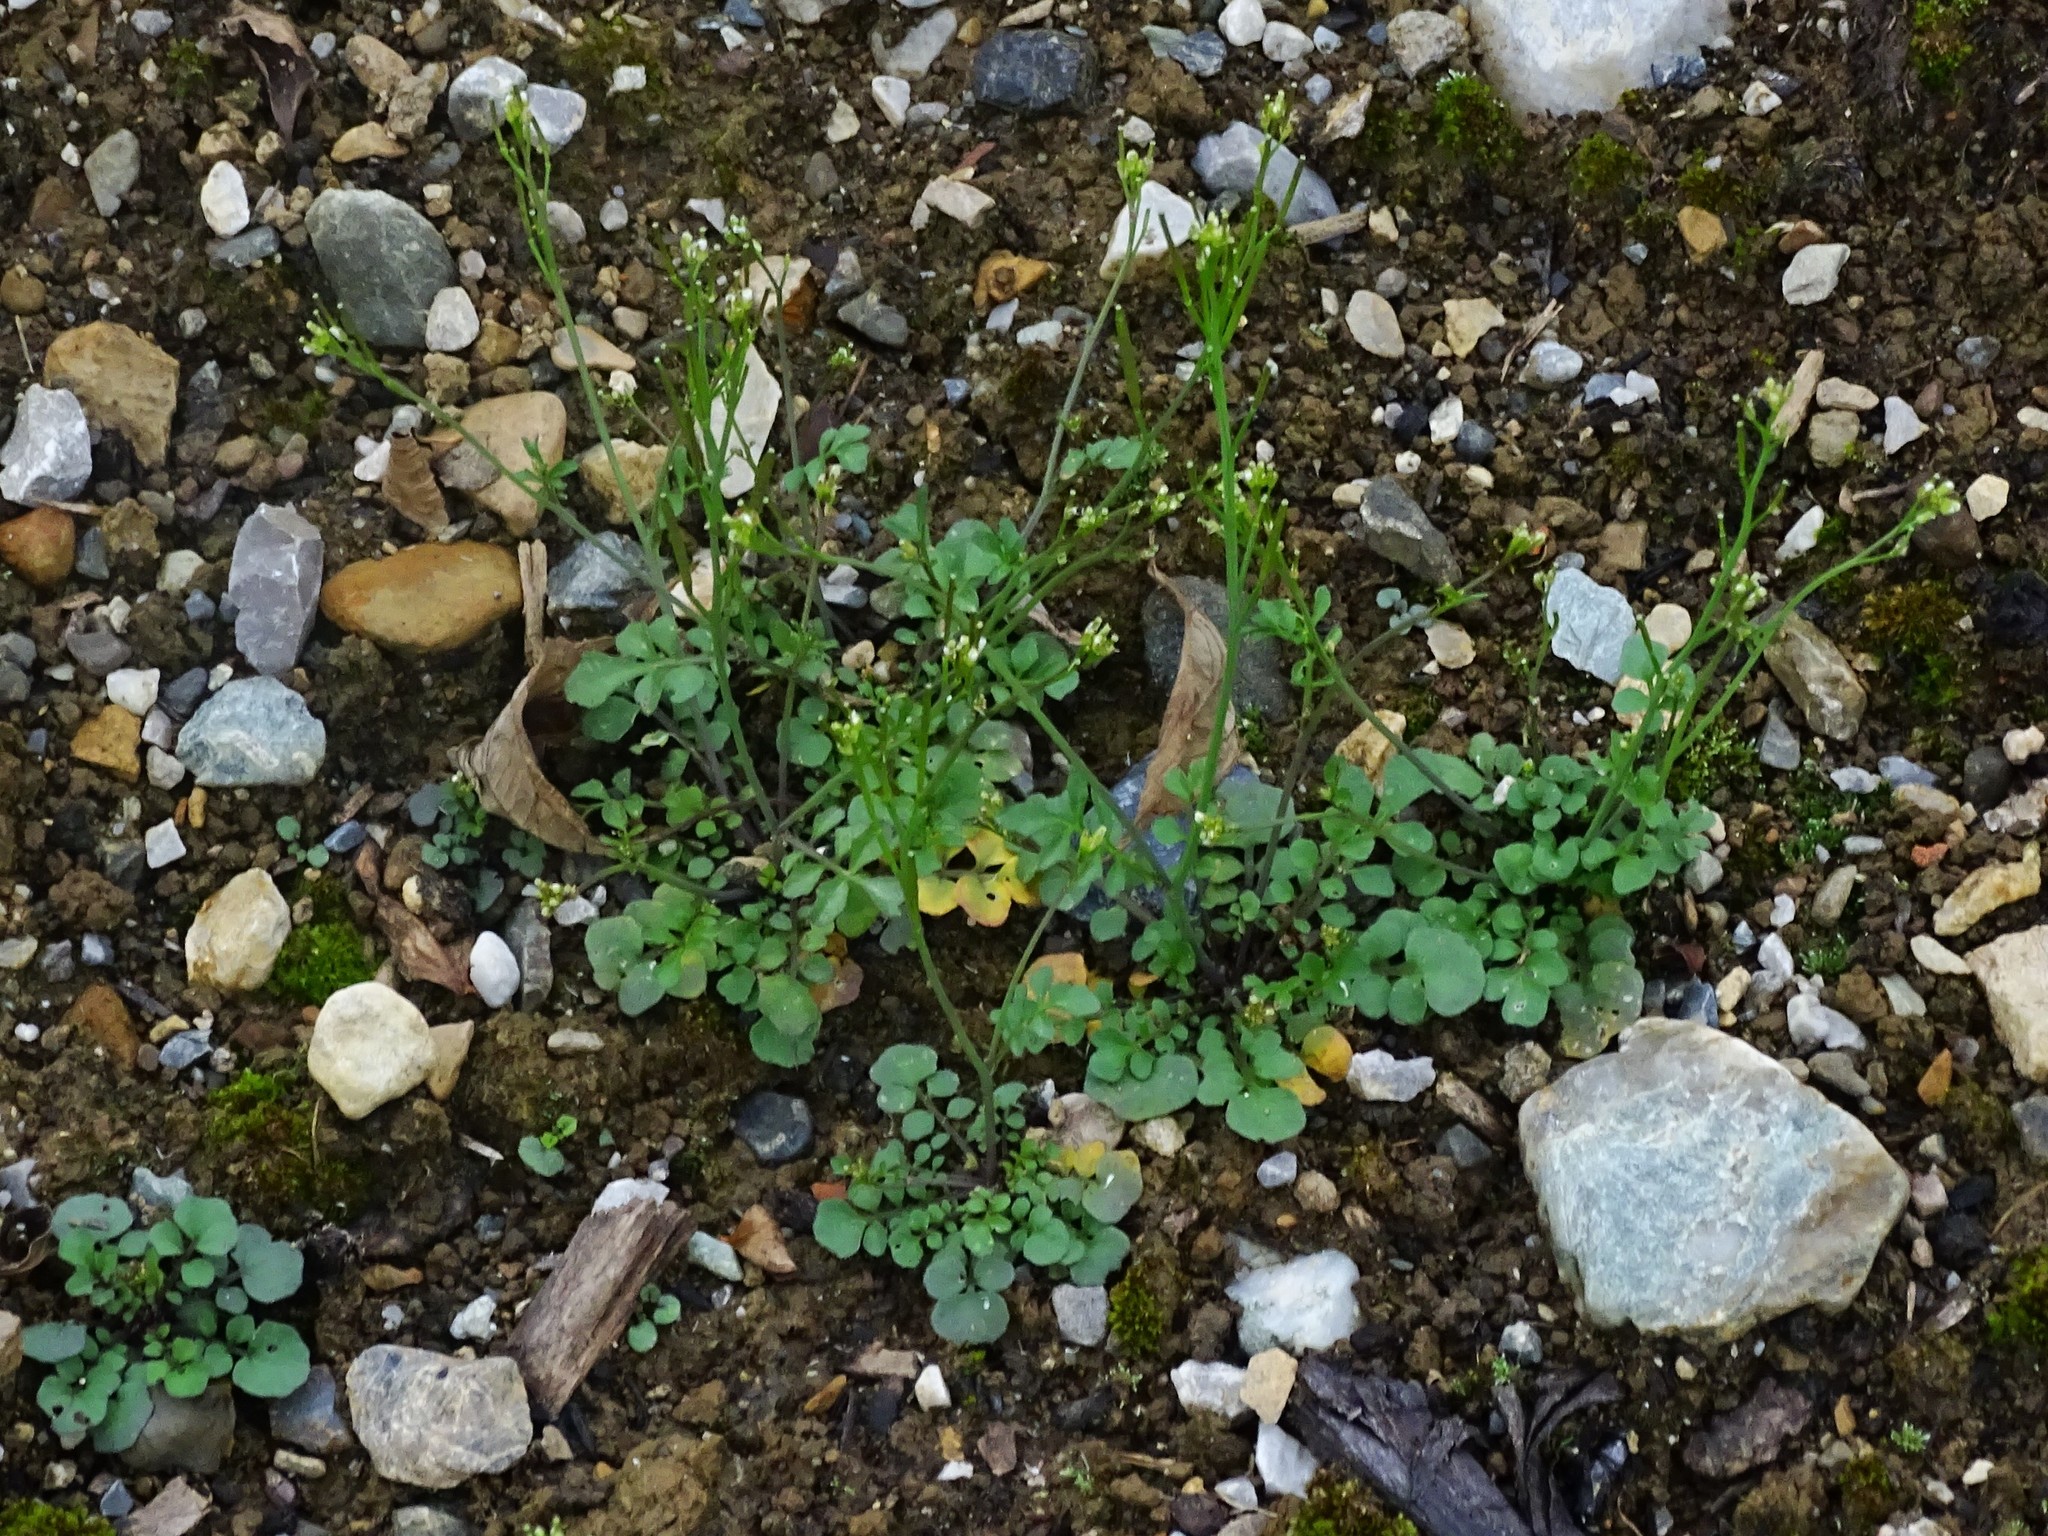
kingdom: Plantae
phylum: Tracheophyta
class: Magnoliopsida
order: Brassicales
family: Brassicaceae
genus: Cardamine
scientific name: Cardamine hirsuta
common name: Hairy bittercress
